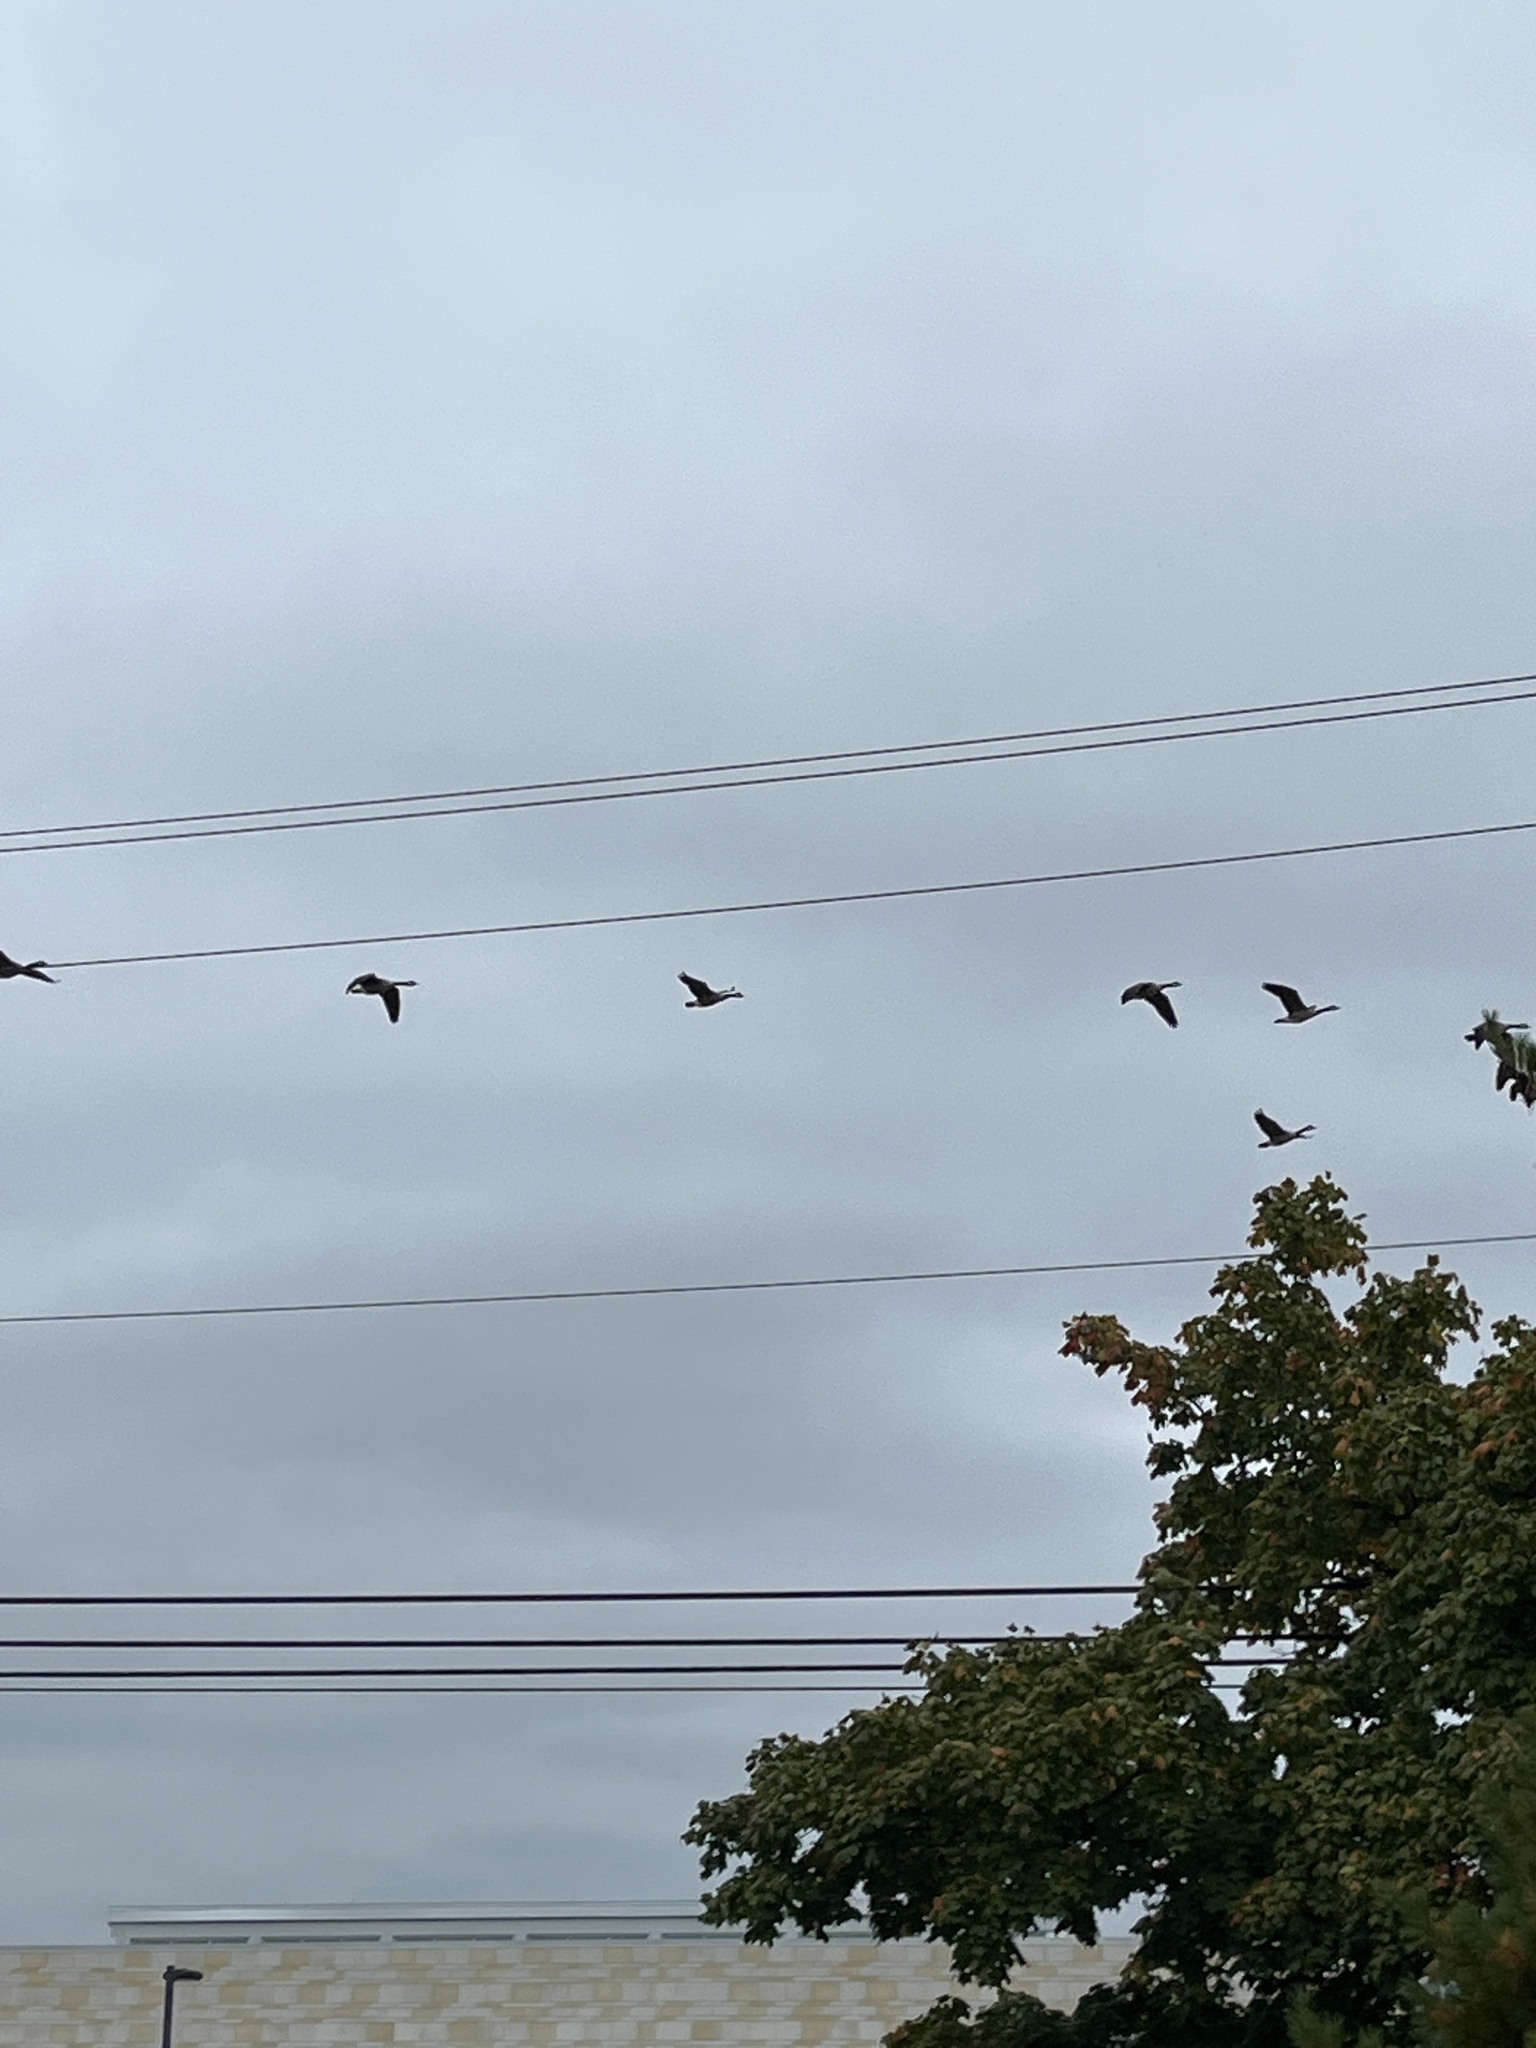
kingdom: Animalia
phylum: Chordata
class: Aves
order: Anseriformes
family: Anatidae
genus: Branta
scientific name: Branta canadensis
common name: Canada goose
